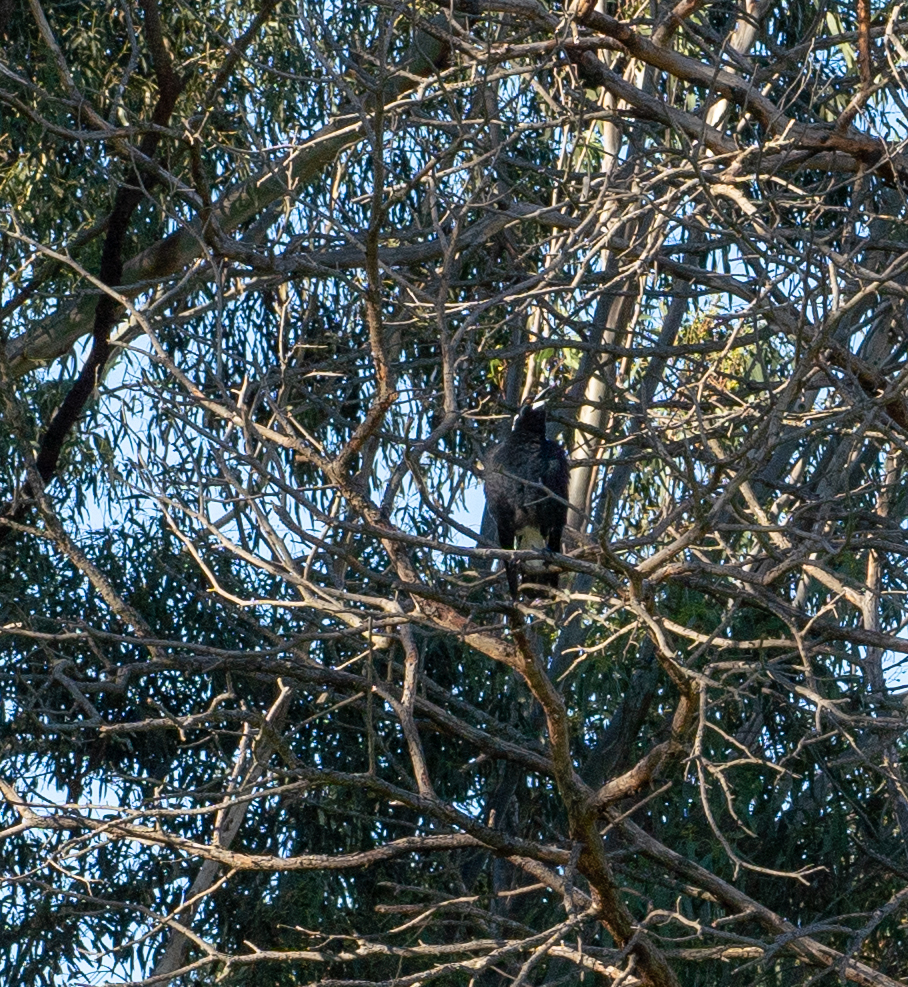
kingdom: Animalia
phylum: Chordata
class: Aves
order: Passeriformes
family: Cracticidae
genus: Gymnorhina
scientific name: Gymnorhina tibicen
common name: Australian magpie
